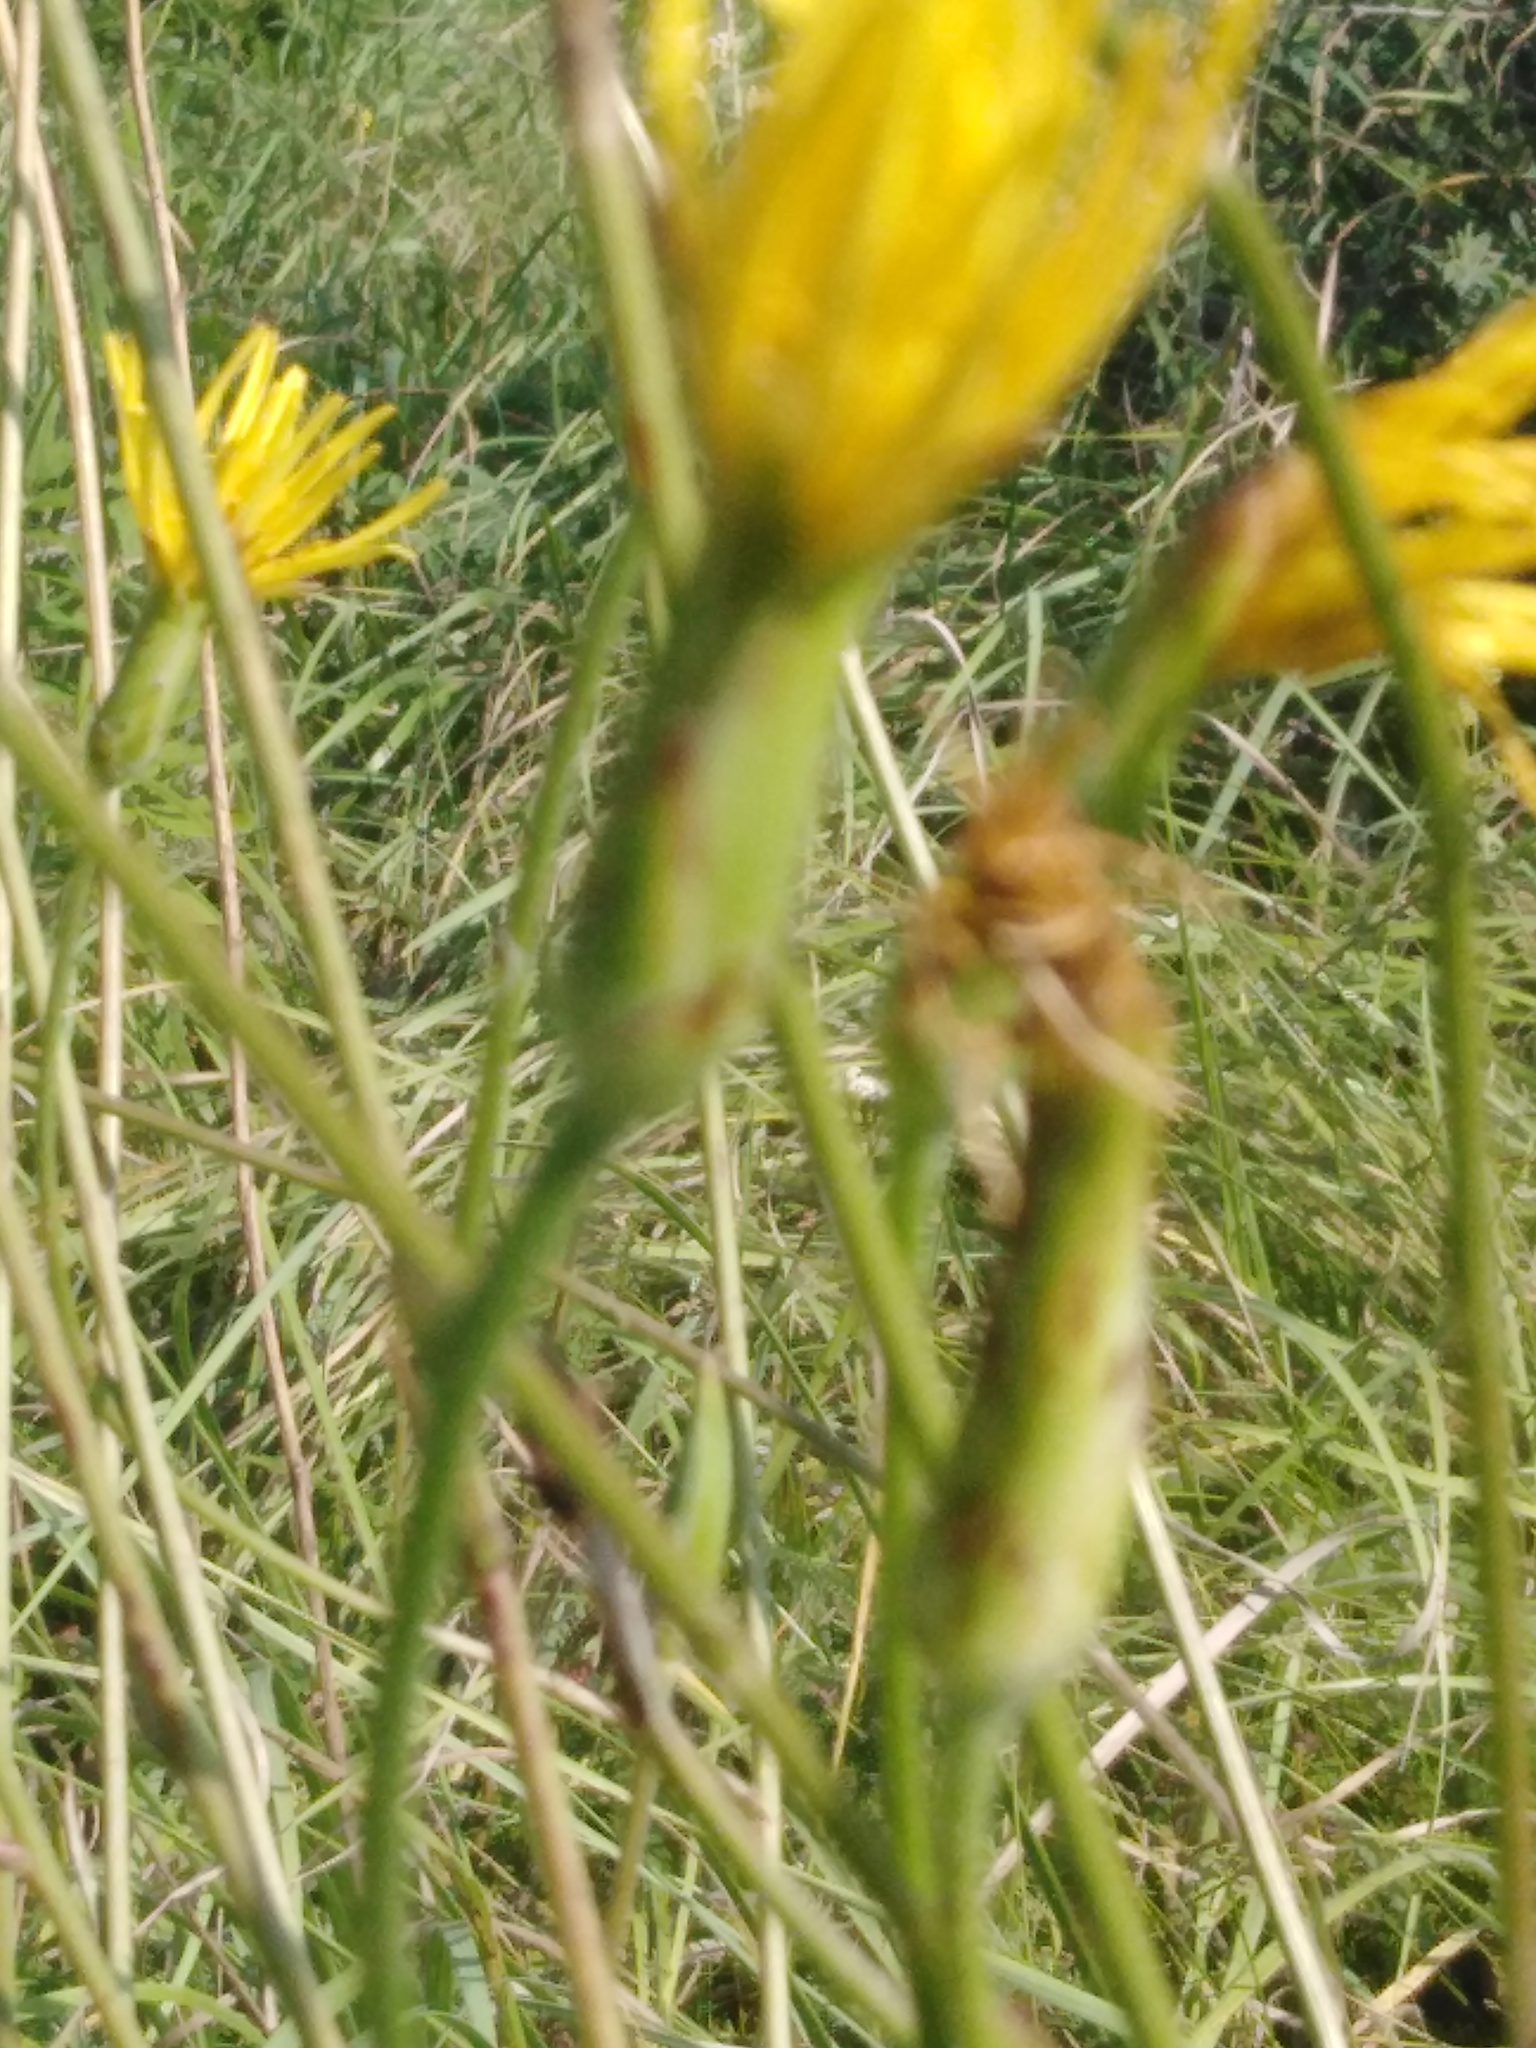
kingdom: Plantae
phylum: Tracheophyta
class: Magnoliopsida
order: Asterales
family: Asteraceae
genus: Pseudopodospermum
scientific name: Pseudopodospermum strictum
